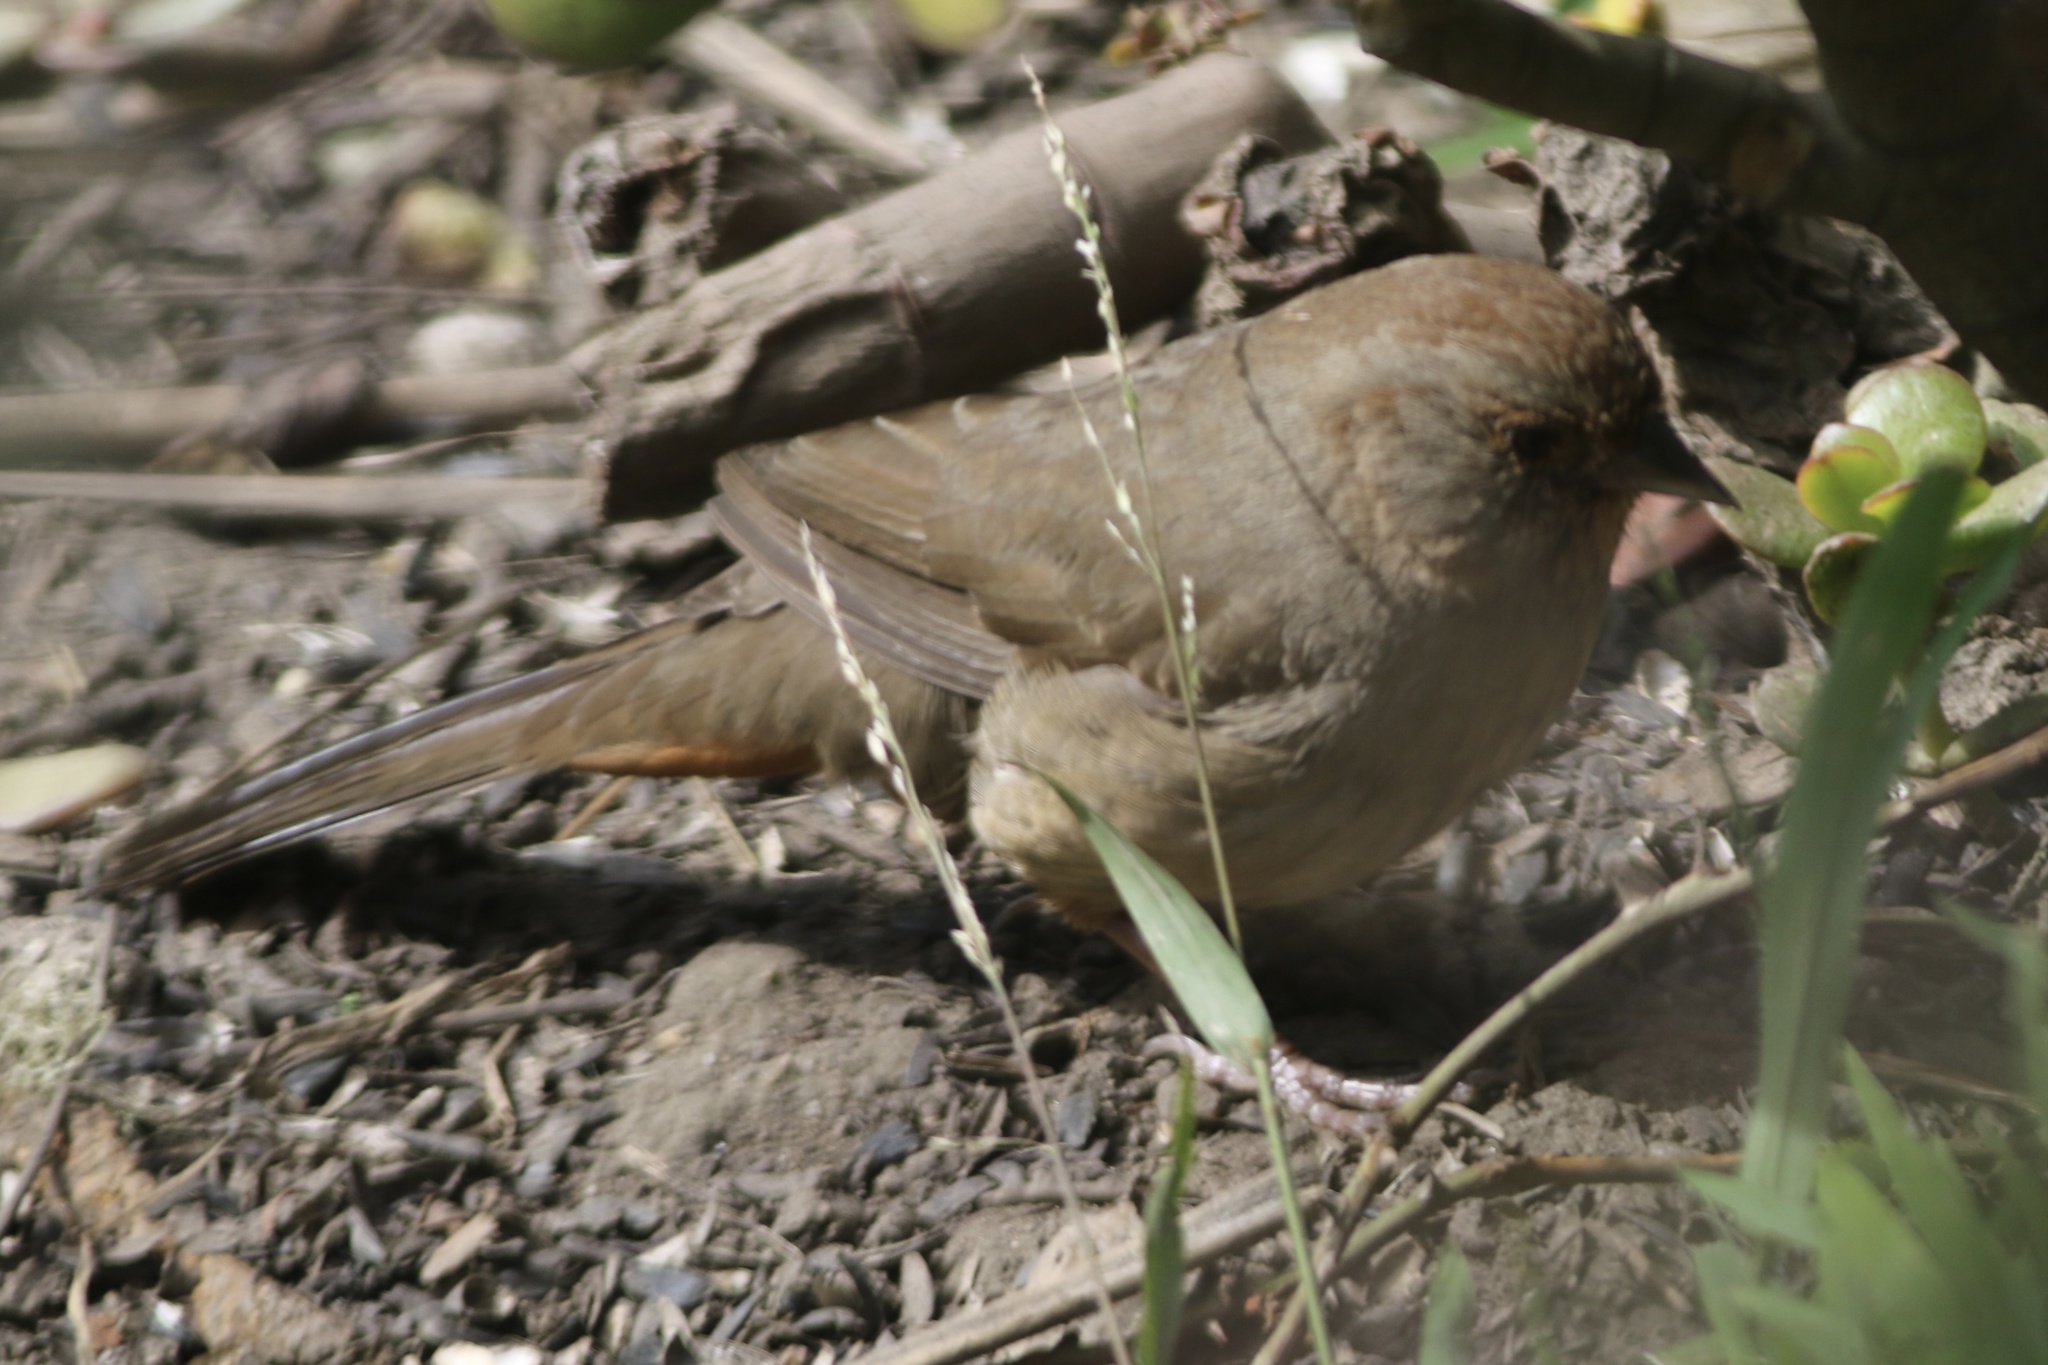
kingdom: Animalia
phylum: Chordata
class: Aves
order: Passeriformes
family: Passerellidae
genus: Melozone
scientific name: Melozone crissalis
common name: California towhee
